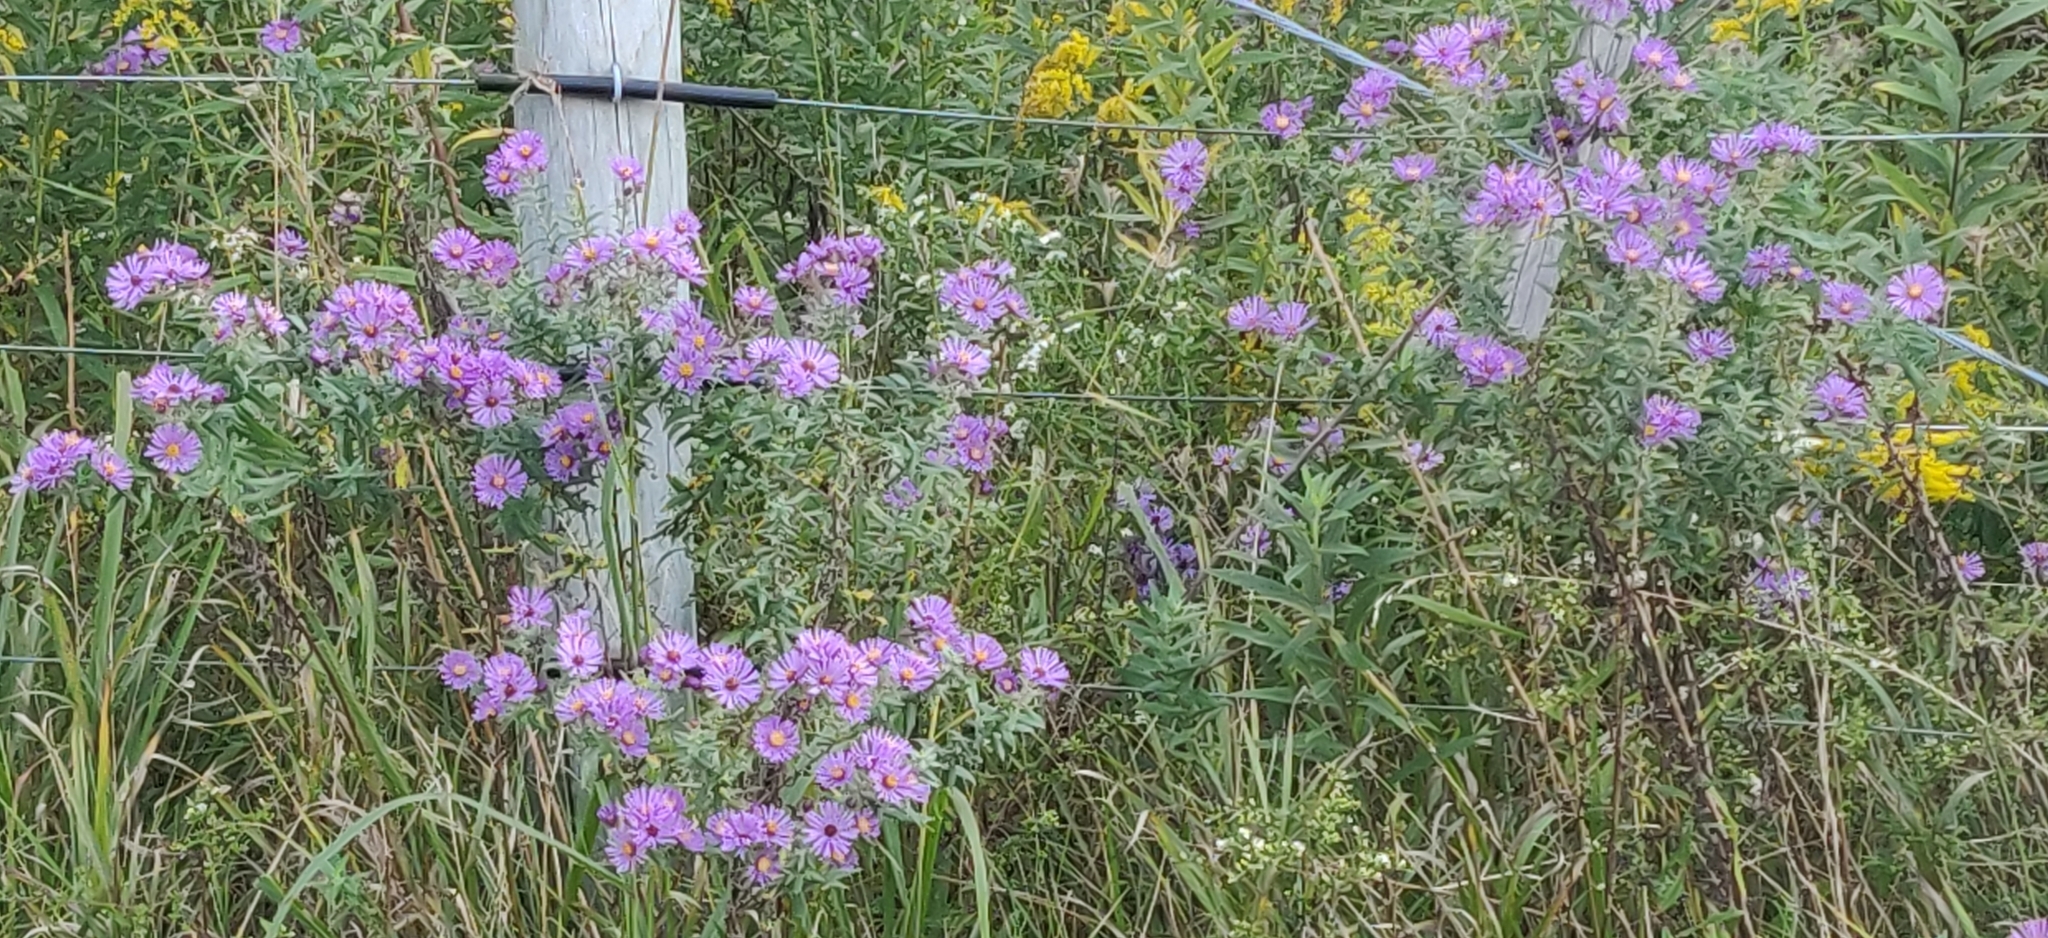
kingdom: Plantae
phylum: Tracheophyta
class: Magnoliopsida
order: Asterales
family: Asteraceae
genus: Symphyotrichum
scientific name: Symphyotrichum novae-angliae
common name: Michaelmas daisy
